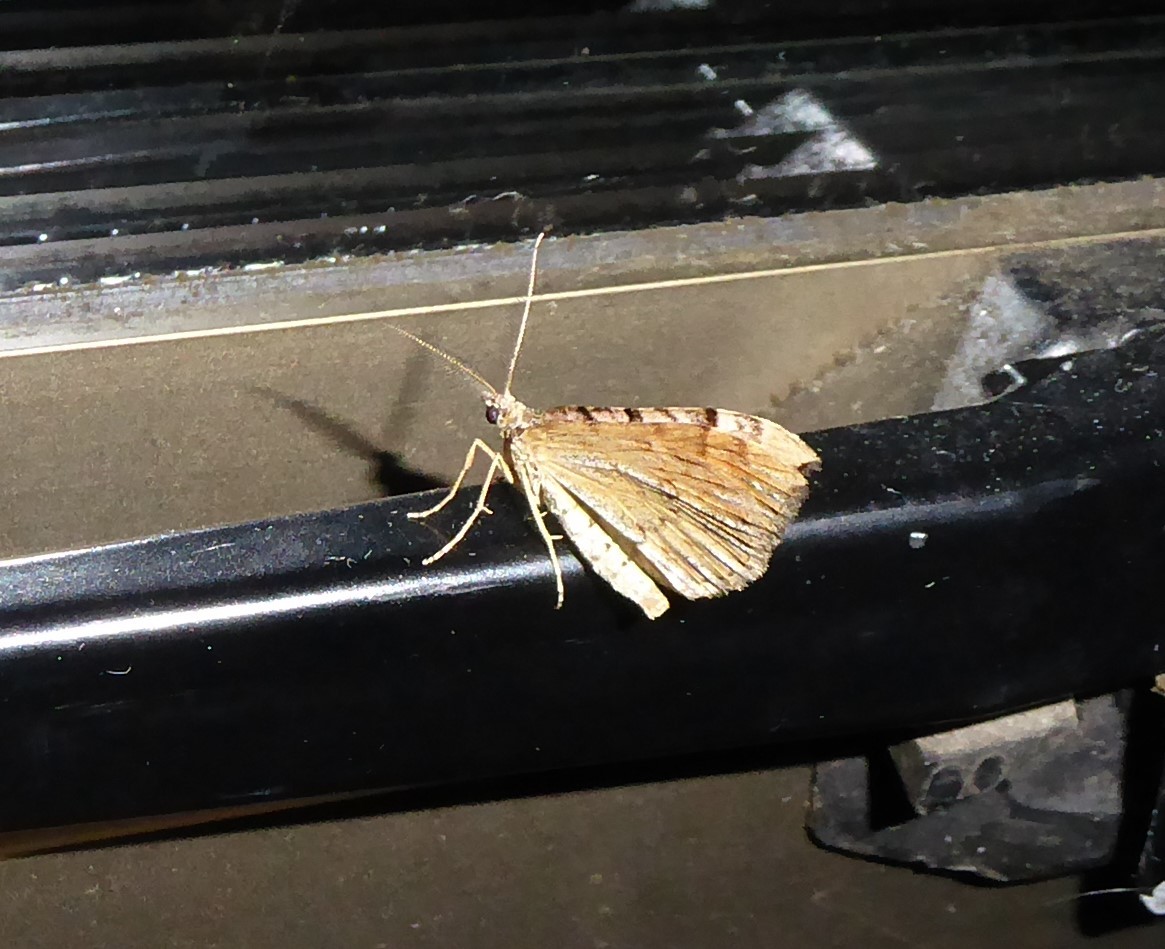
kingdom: Animalia
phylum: Arthropoda
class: Insecta
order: Lepidoptera
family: Geometridae
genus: Xanthorhoe
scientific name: Xanthorhoe semifissata
